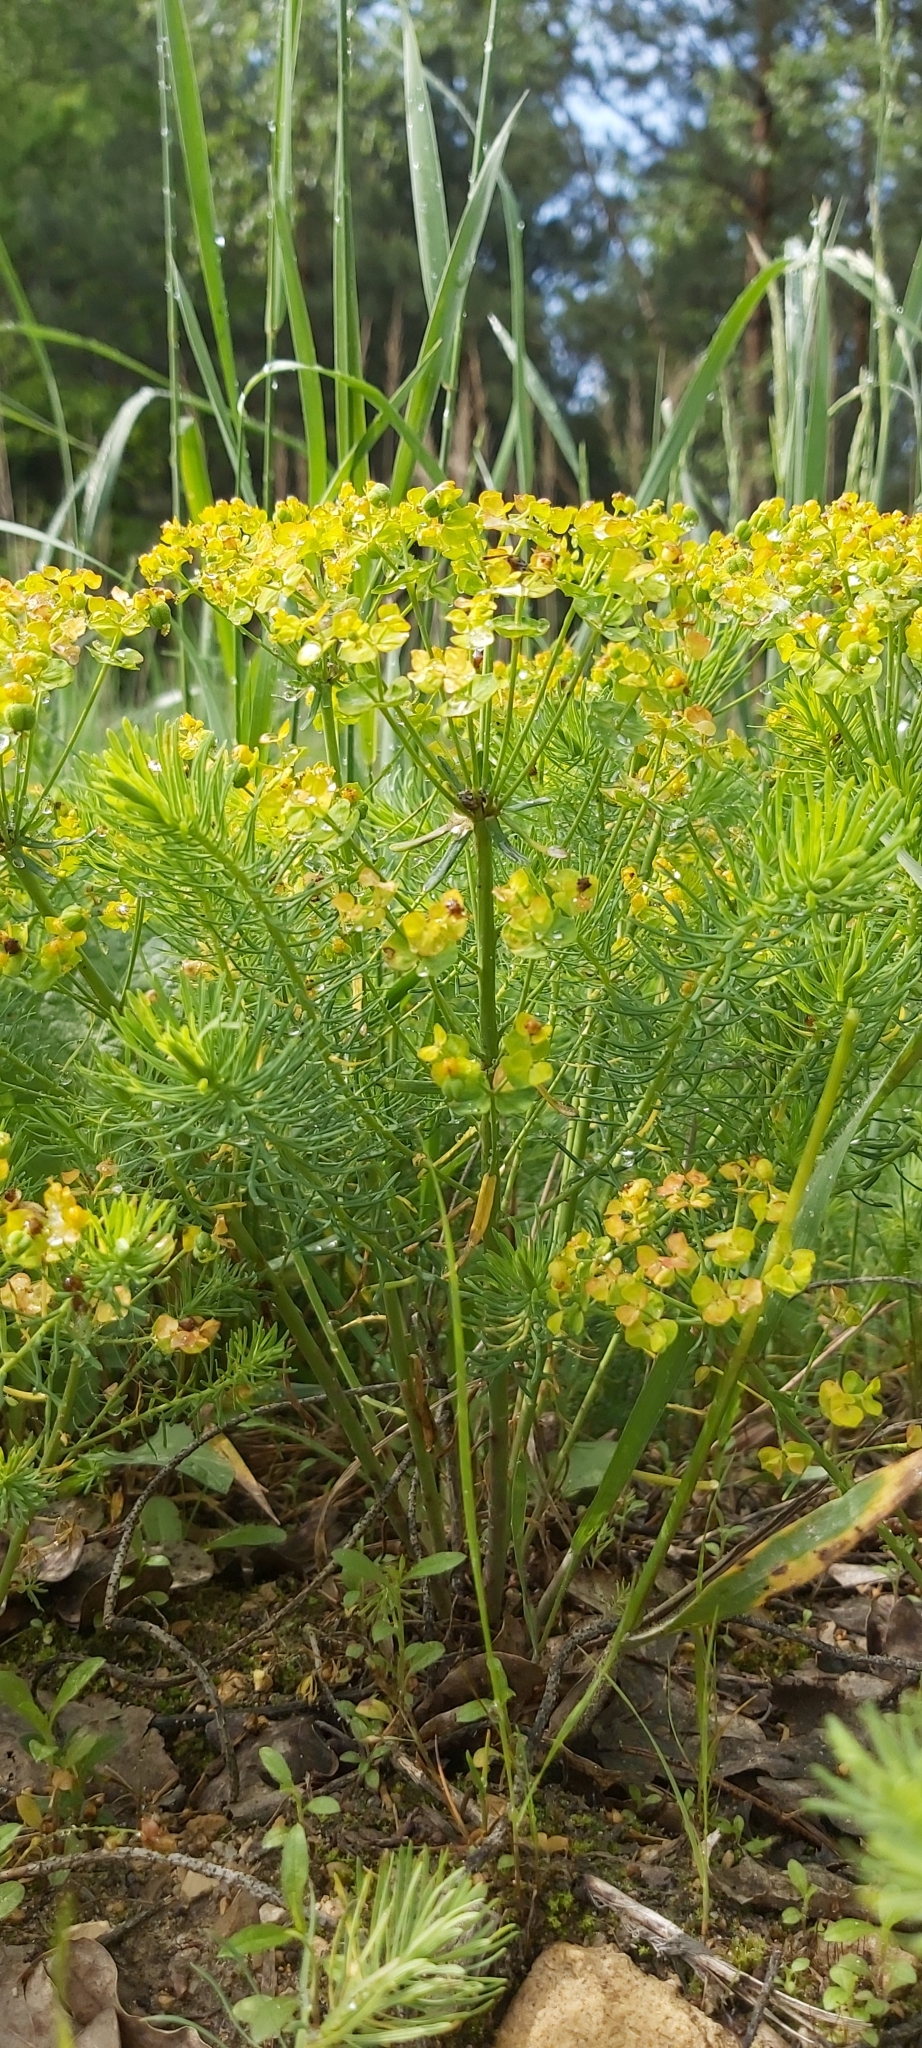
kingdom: Plantae
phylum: Tracheophyta
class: Magnoliopsida
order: Malpighiales
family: Euphorbiaceae
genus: Euphorbia
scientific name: Euphorbia cyparissias
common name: Cypress spurge
